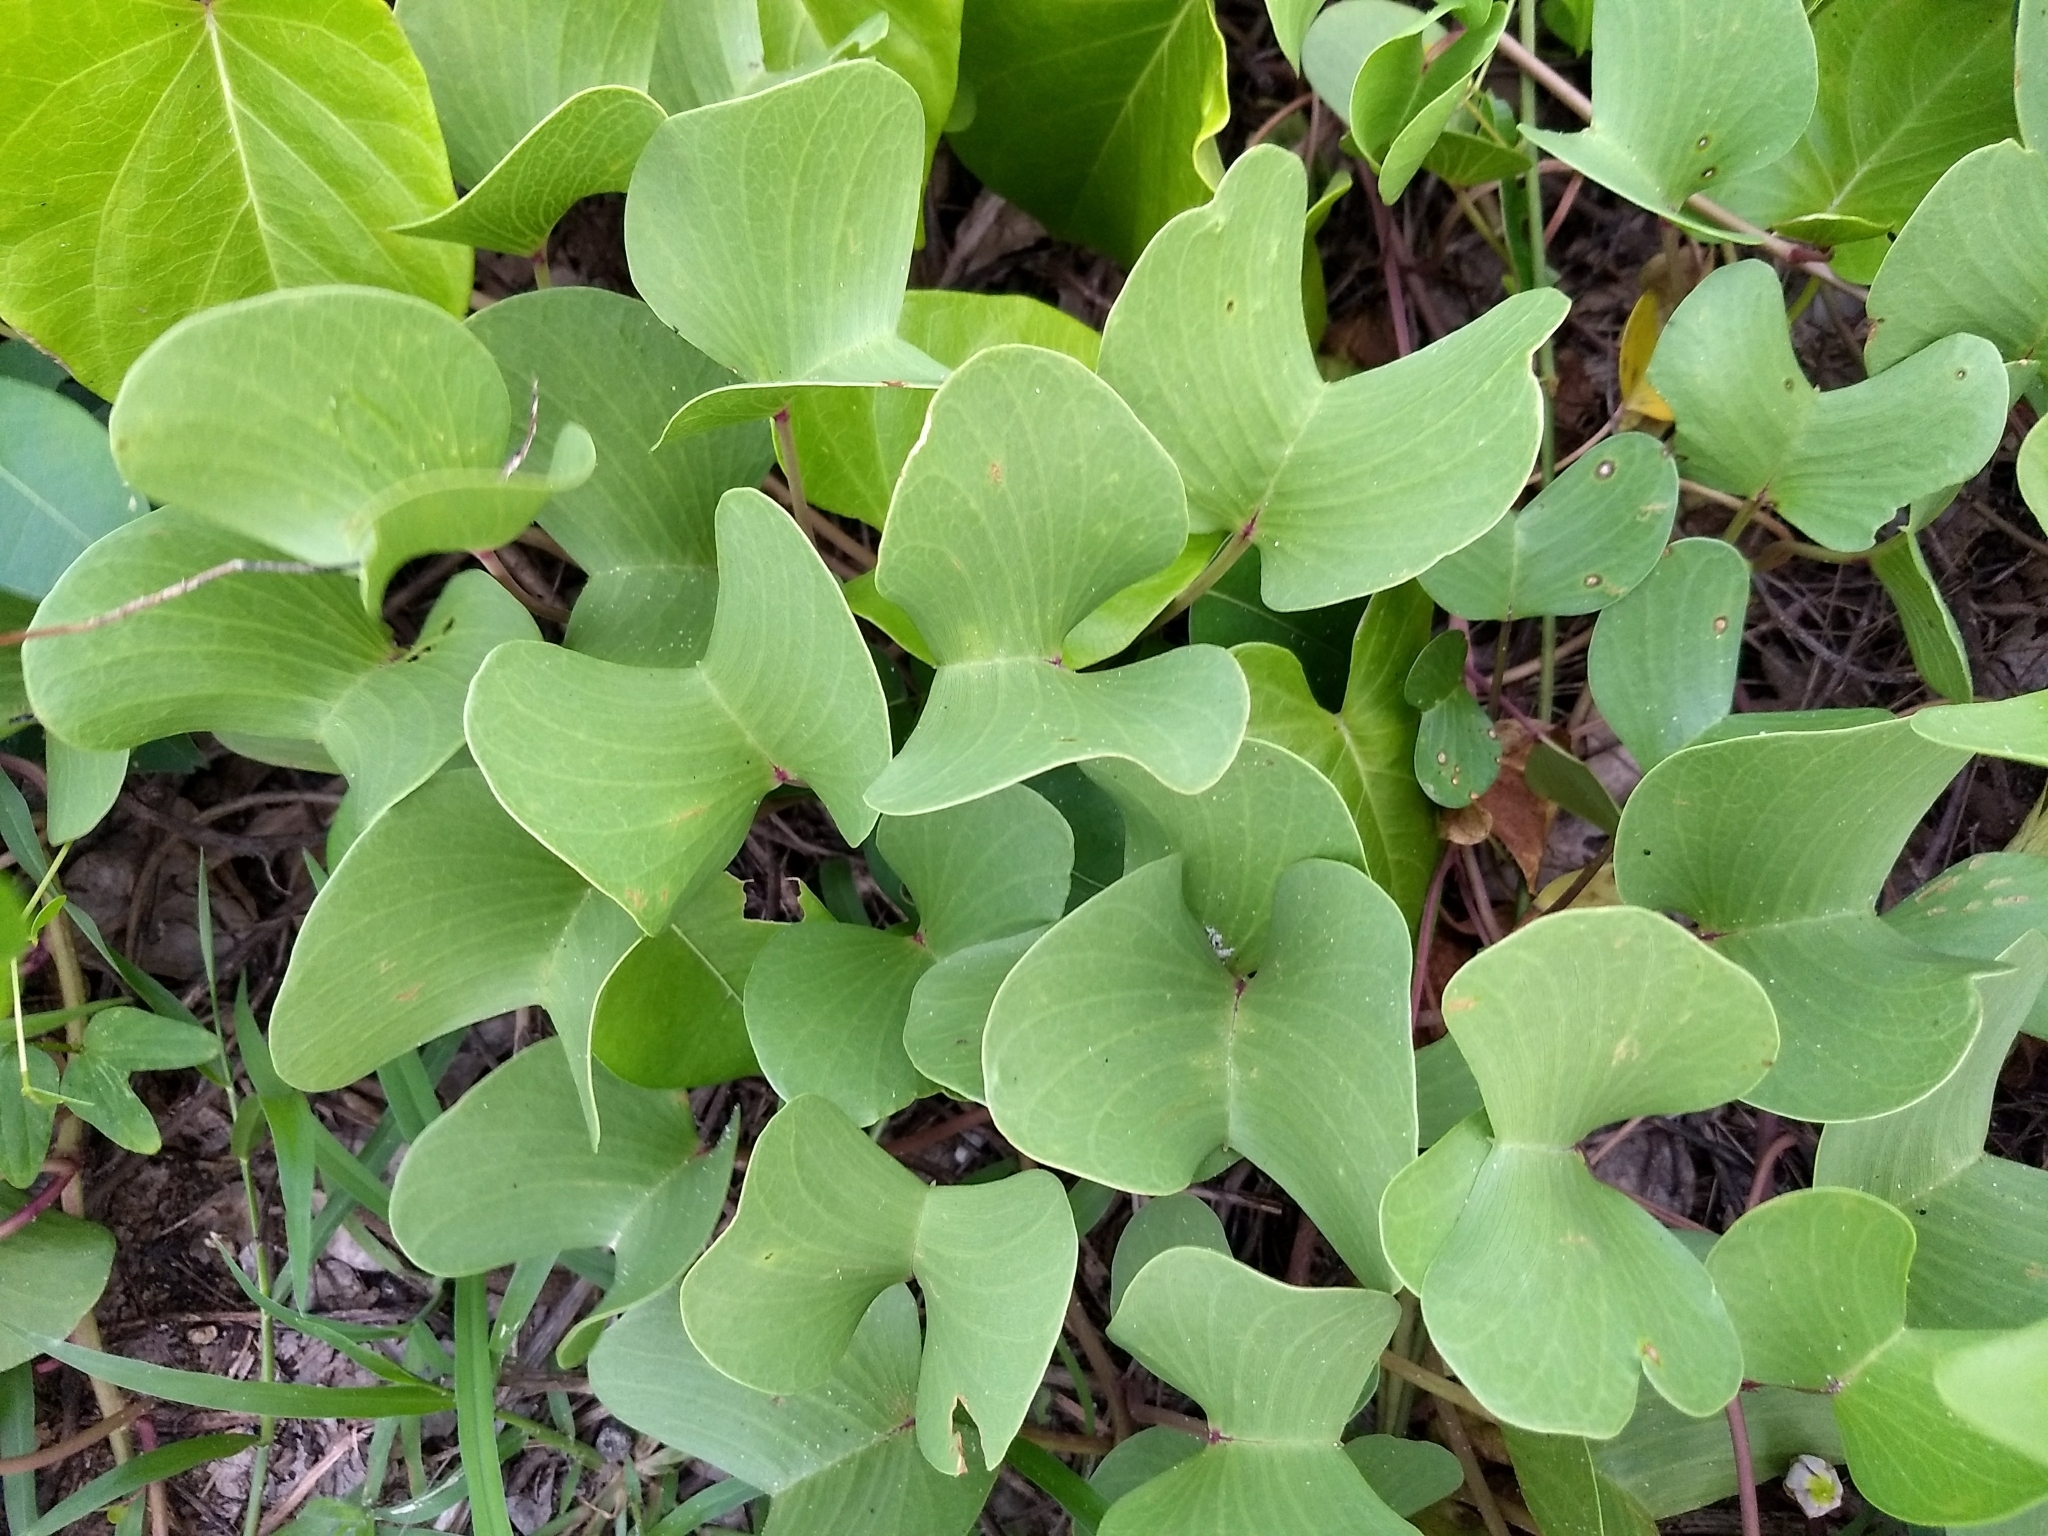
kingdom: Plantae
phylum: Tracheophyta
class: Magnoliopsida
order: Solanales
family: Convolvulaceae
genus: Ipomoea
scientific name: Ipomoea pes-caprae
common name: Beach morning glory
